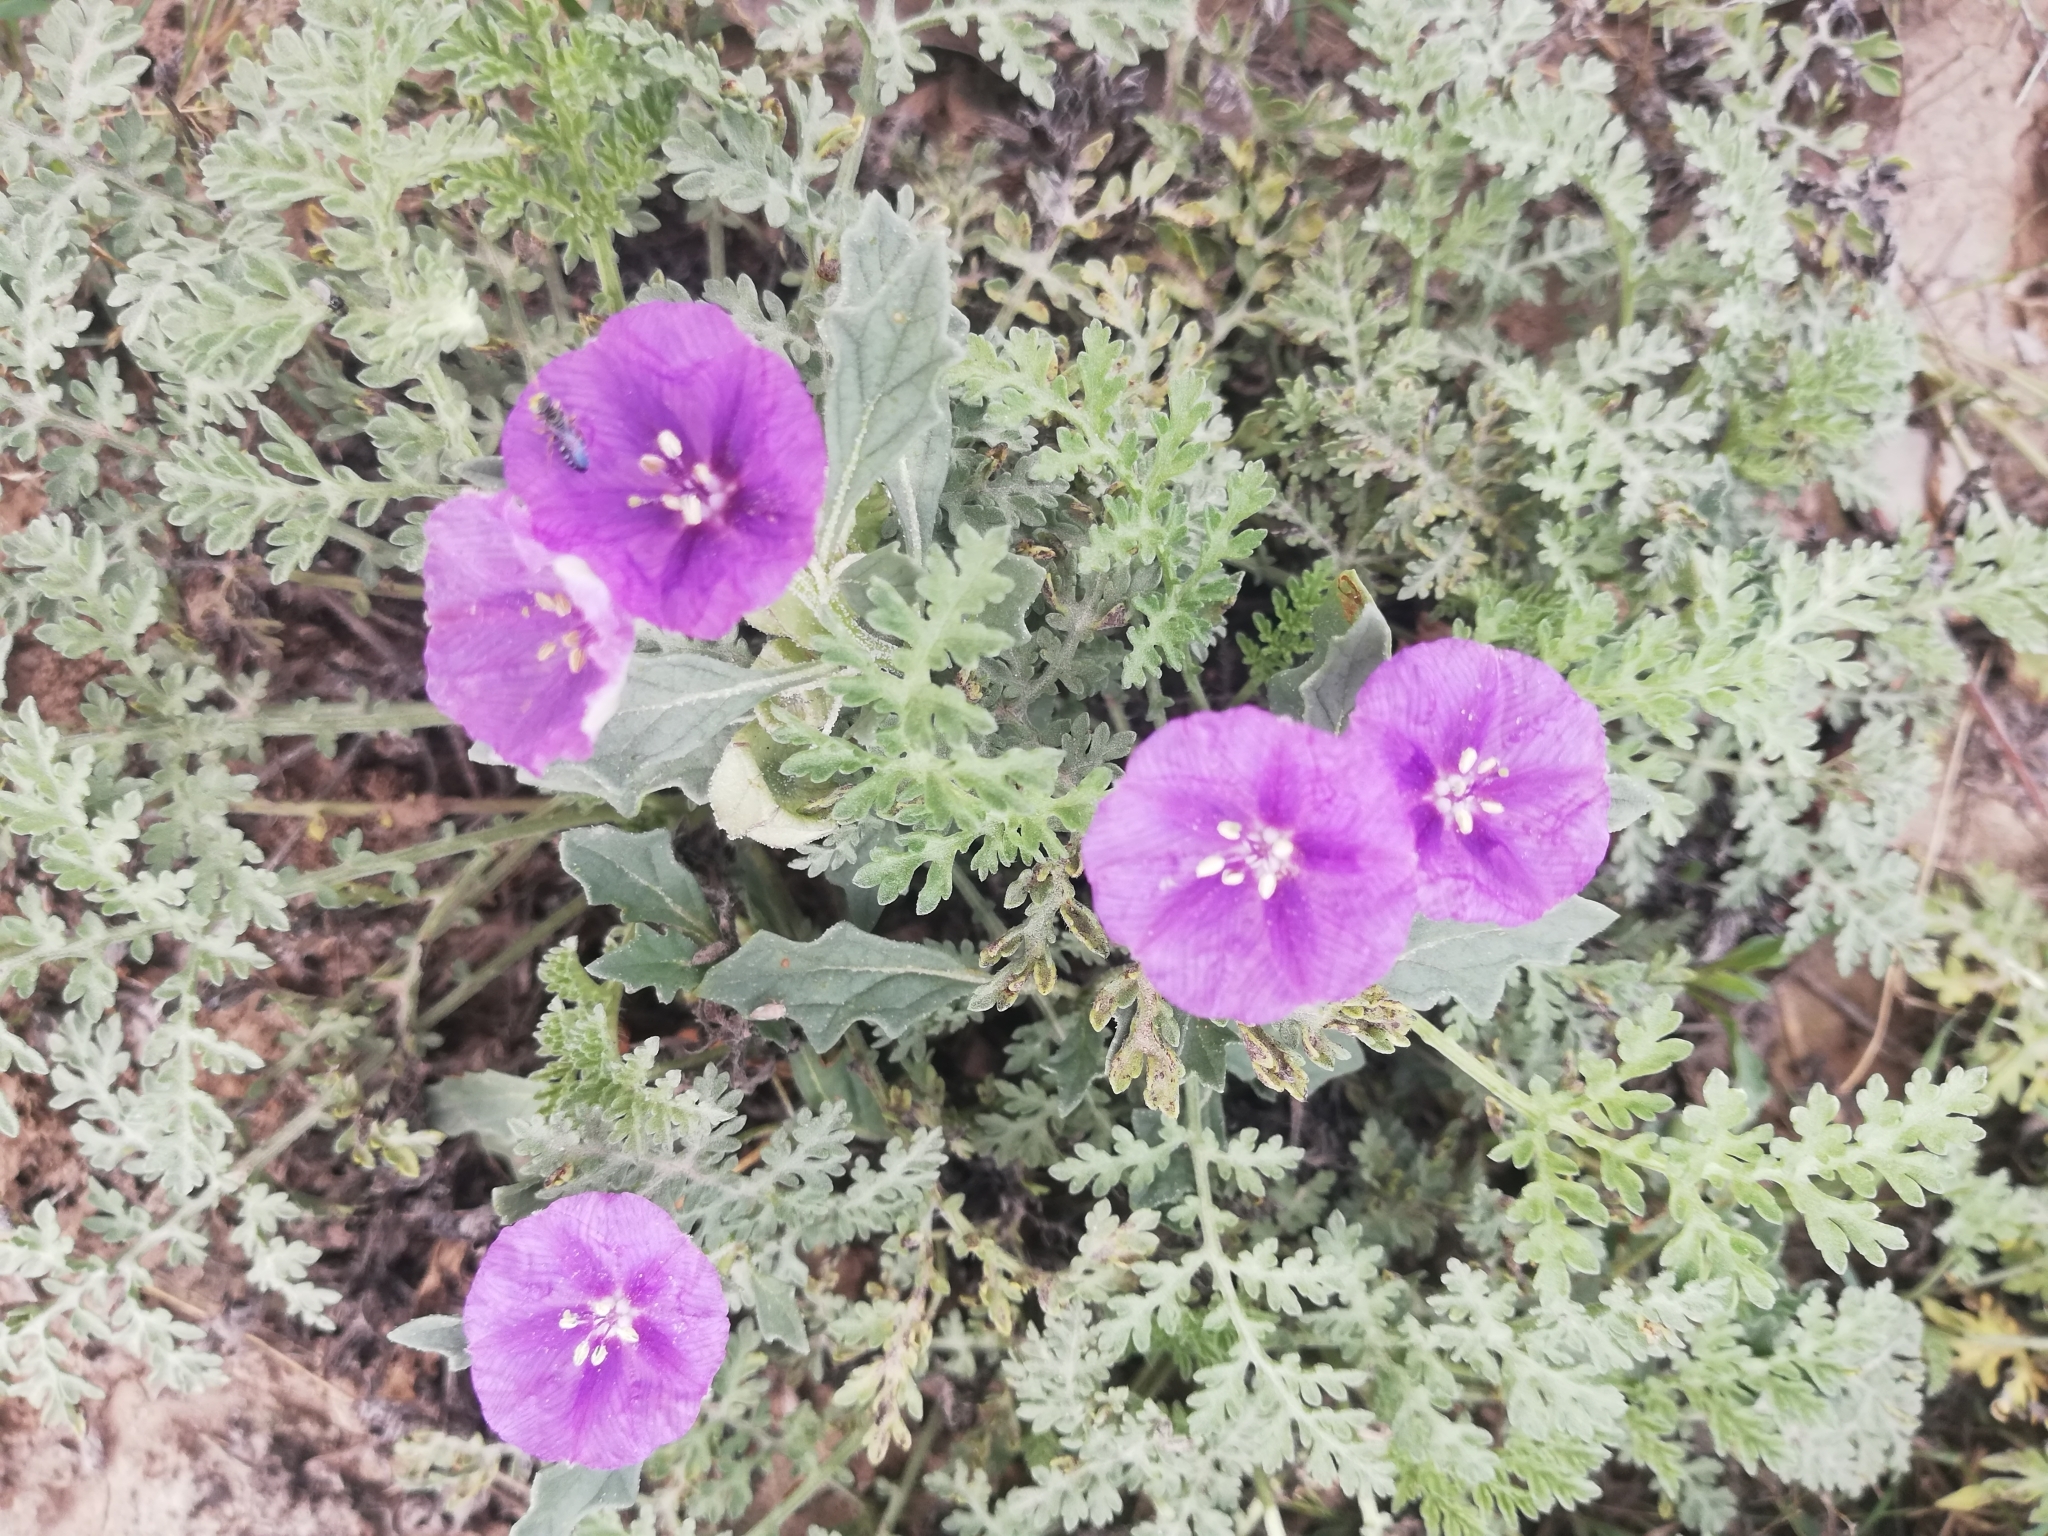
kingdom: Plantae
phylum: Tracheophyta
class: Magnoliopsida
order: Solanales
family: Solanaceae
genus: Quincula
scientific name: Quincula lobata
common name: Purple-ground-cherry
